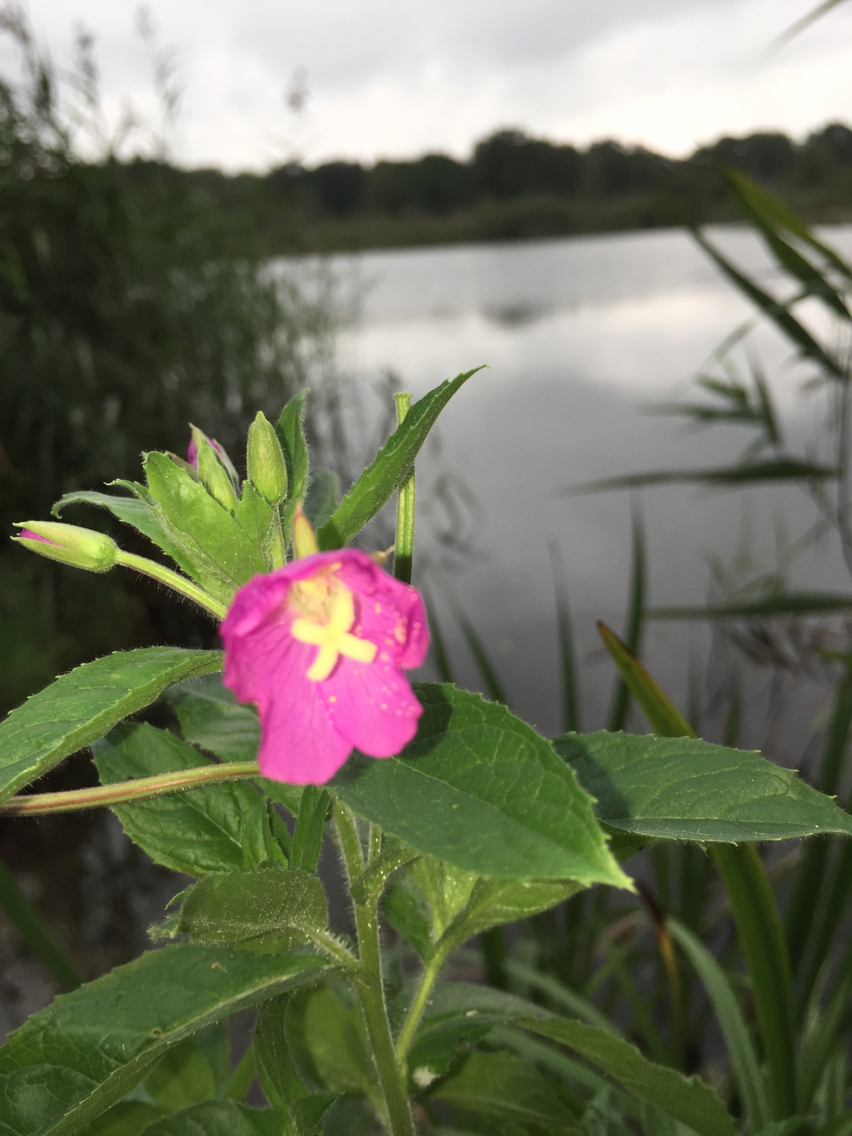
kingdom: Plantae
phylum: Tracheophyta
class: Magnoliopsida
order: Myrtales
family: Onagraceae
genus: Epilobium
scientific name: Epilobium hirsutum
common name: Great willowherb
